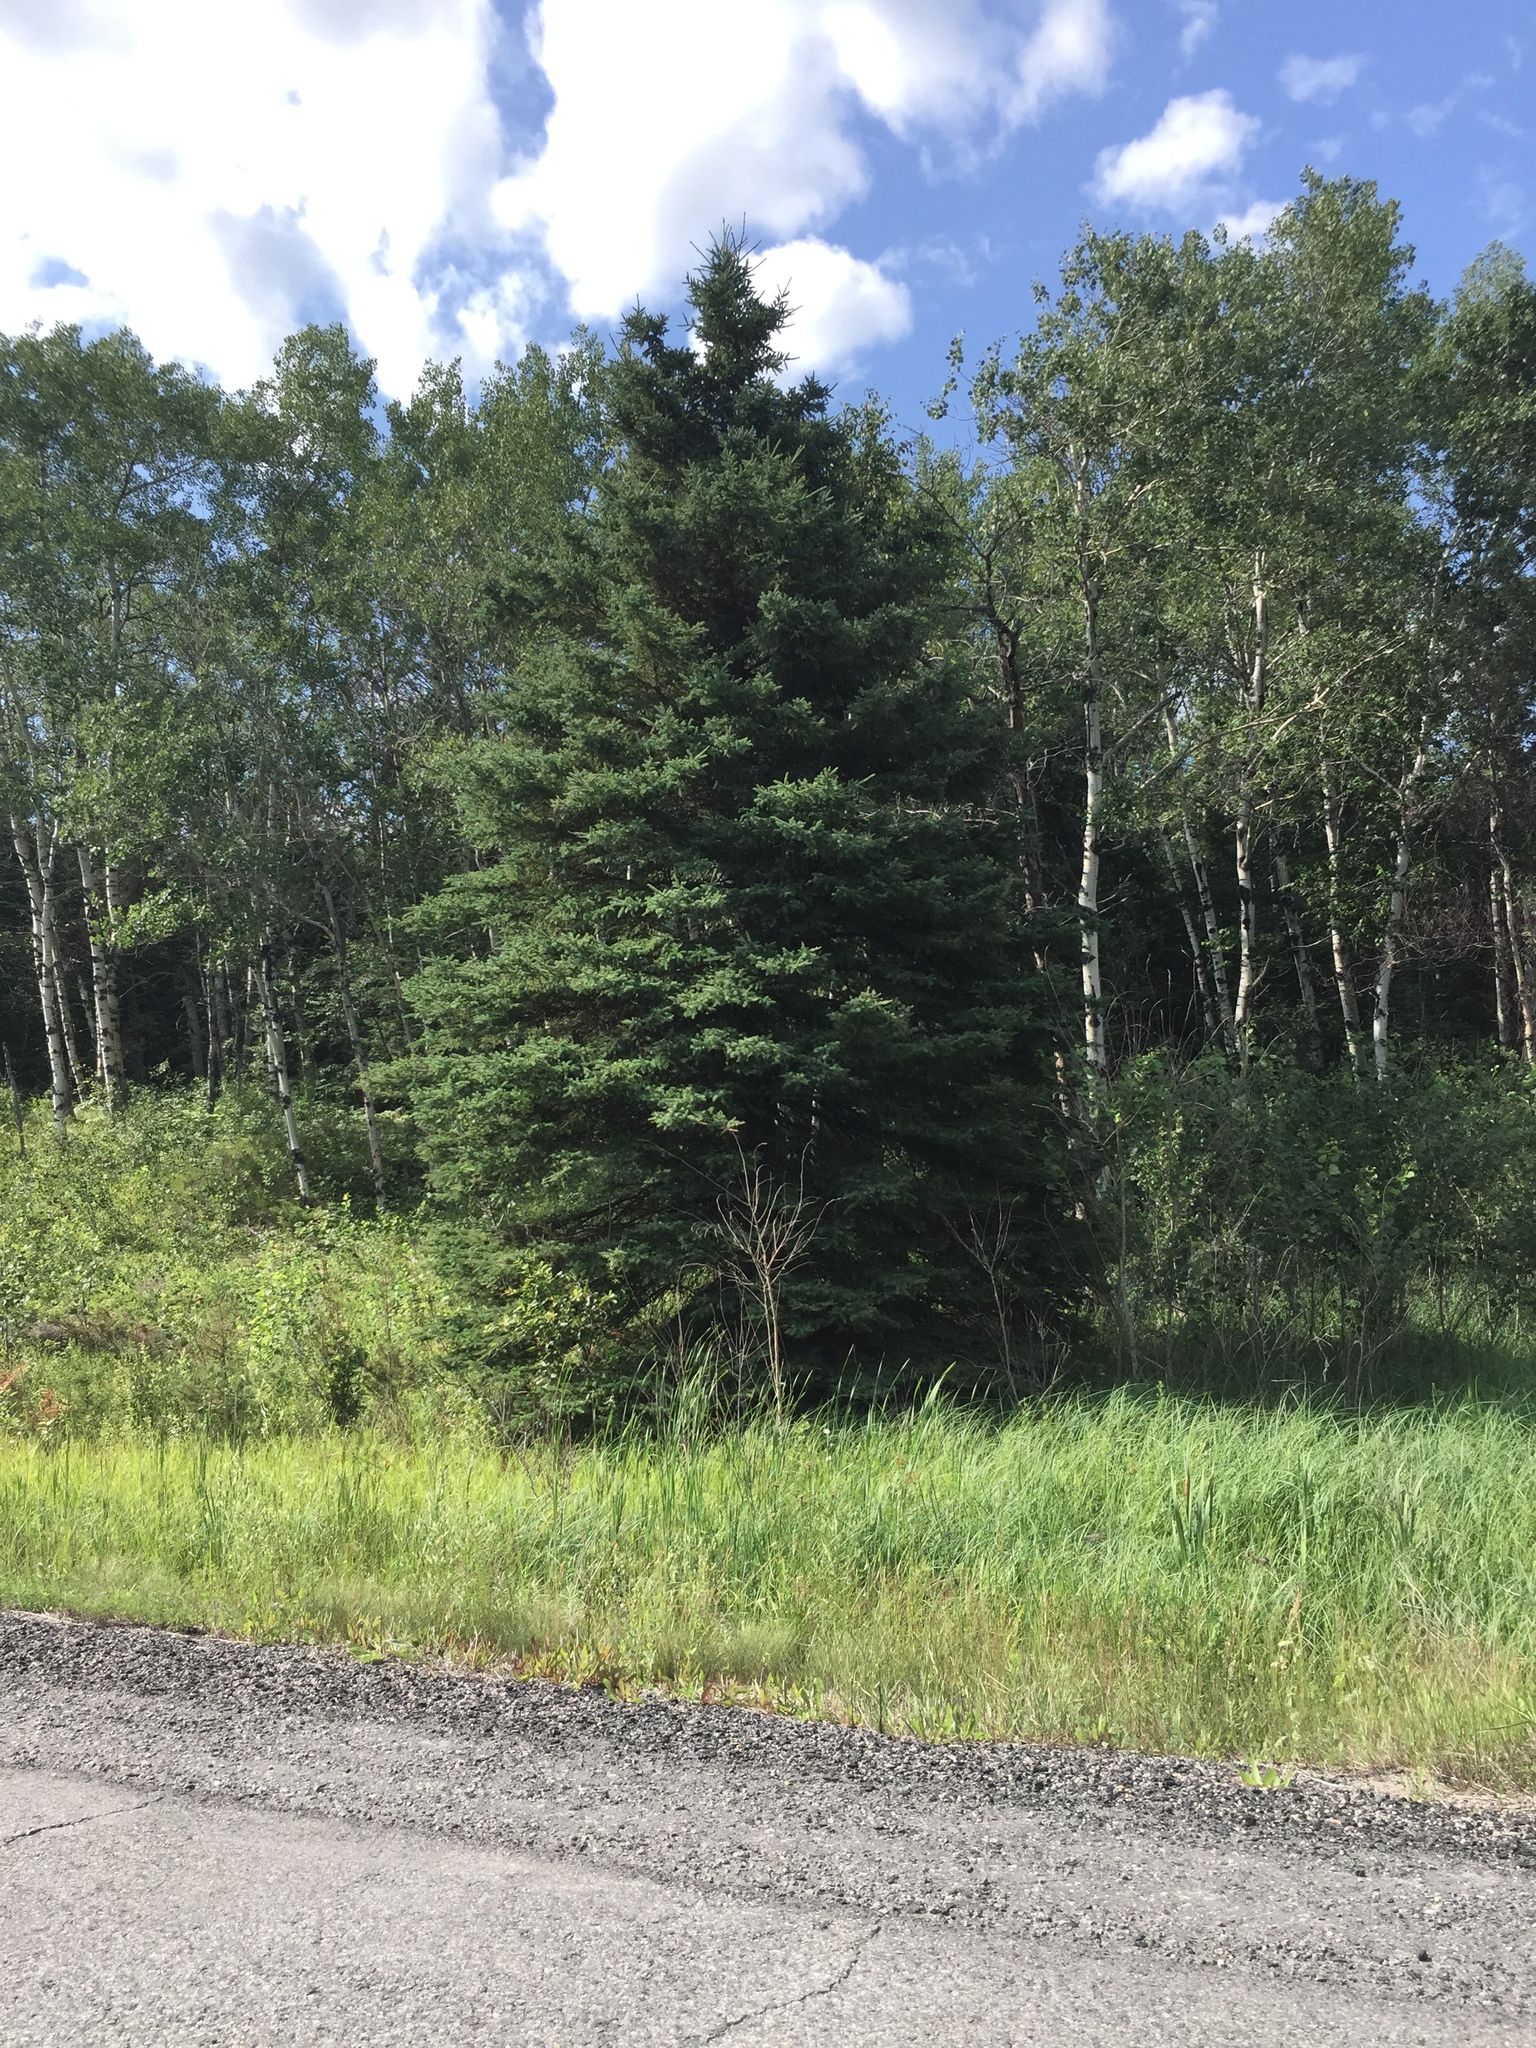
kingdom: Plantae
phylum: Tracheophyta
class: Pinopsida
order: Pinales
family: Pinaceae
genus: Picea
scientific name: Picea glauca
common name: White spruce
